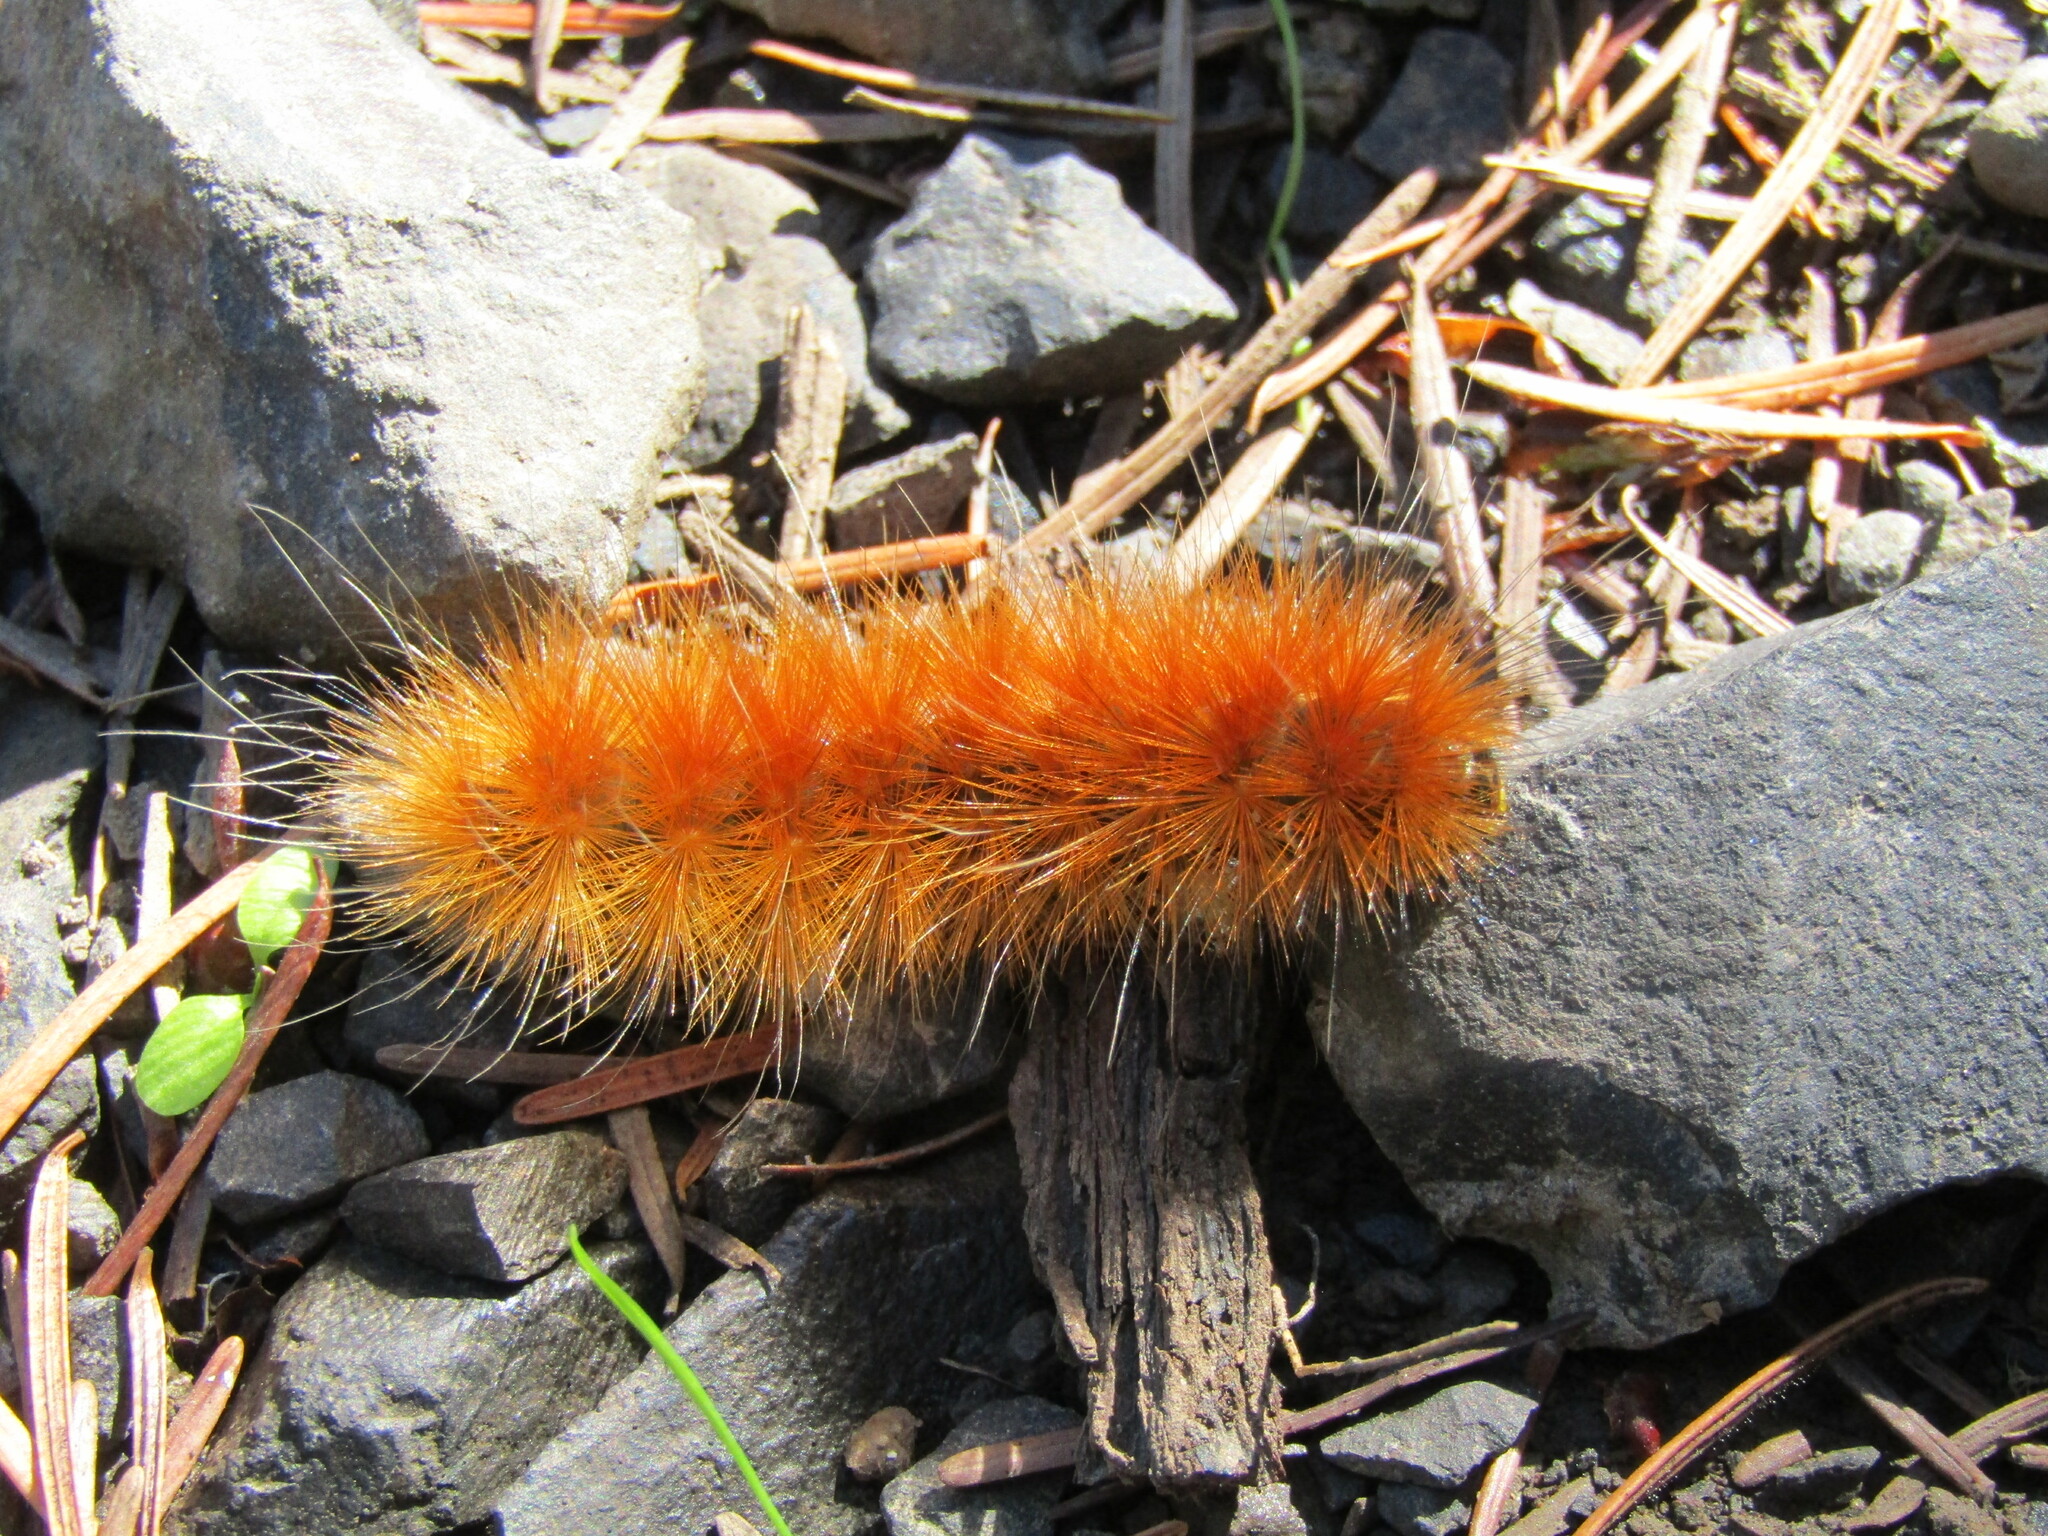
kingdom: Animalia
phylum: Arthropoda
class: Insecta
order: Lepidoptera
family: Erebidae
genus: Spilosoma
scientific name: Spilosoma virginica
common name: Virginia tiger moth
